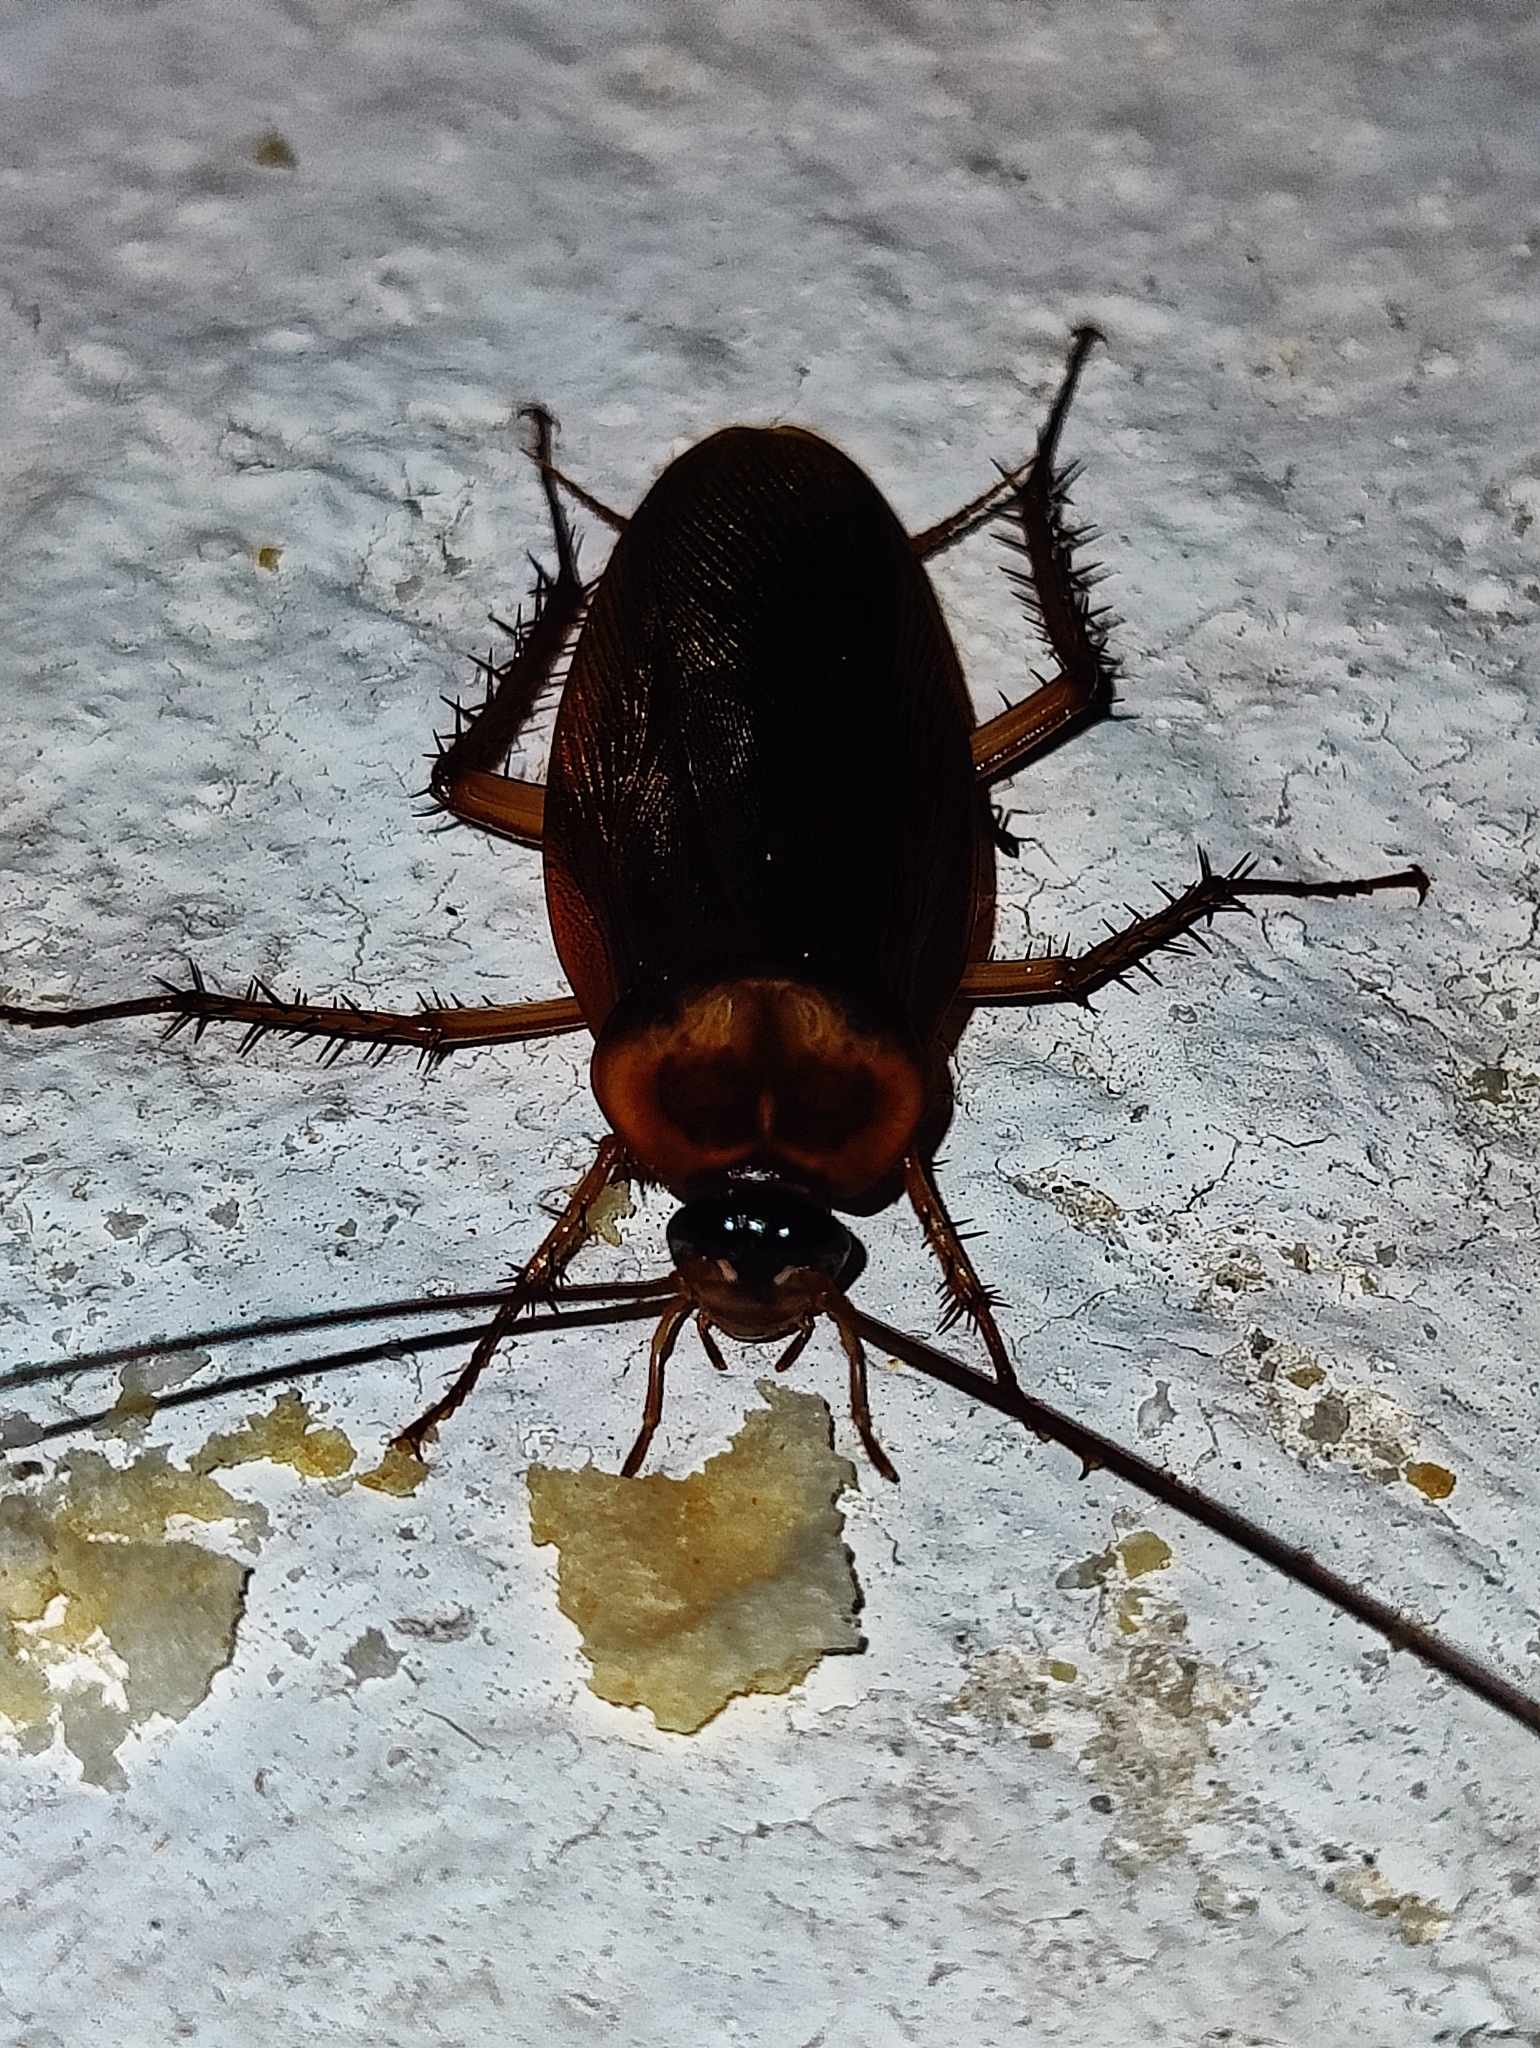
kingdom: Animalia
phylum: Arthropoda
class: Insecta
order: Blattodea
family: Blattidae
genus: Periplaneta
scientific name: Periplaneta americana
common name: American cockroach
